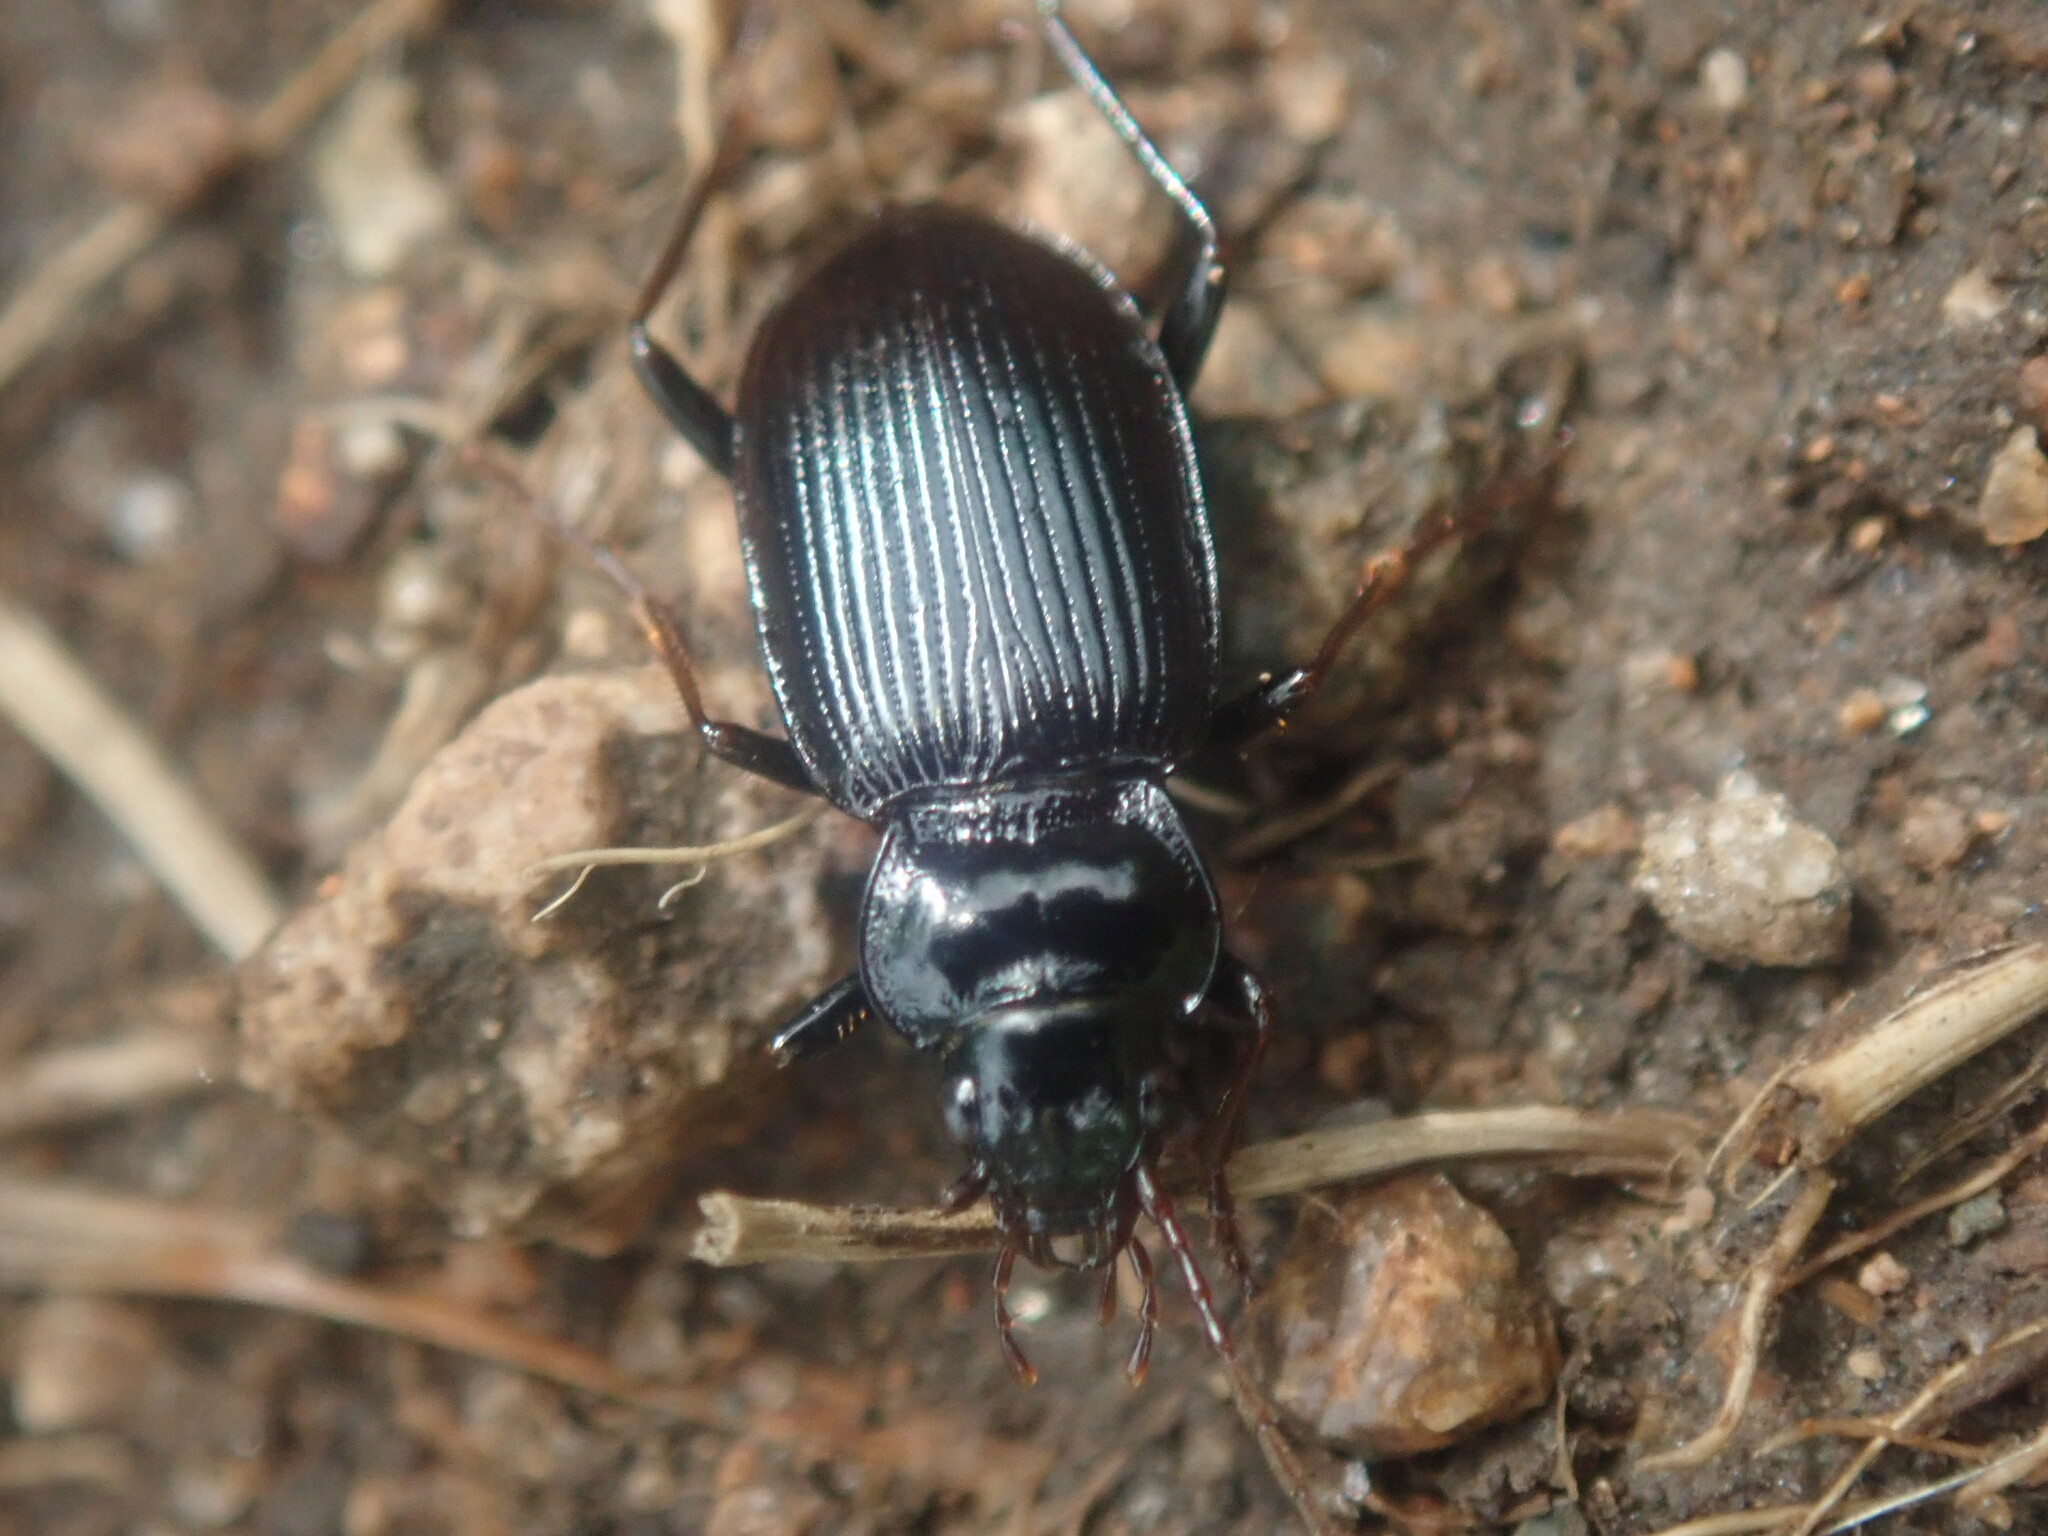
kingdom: Animalia
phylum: Arthropoda
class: Insecta
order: Coleoptera
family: Carabidae
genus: Nebria
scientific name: Nebria brevicollis
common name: Short-necked gazelle beetle
